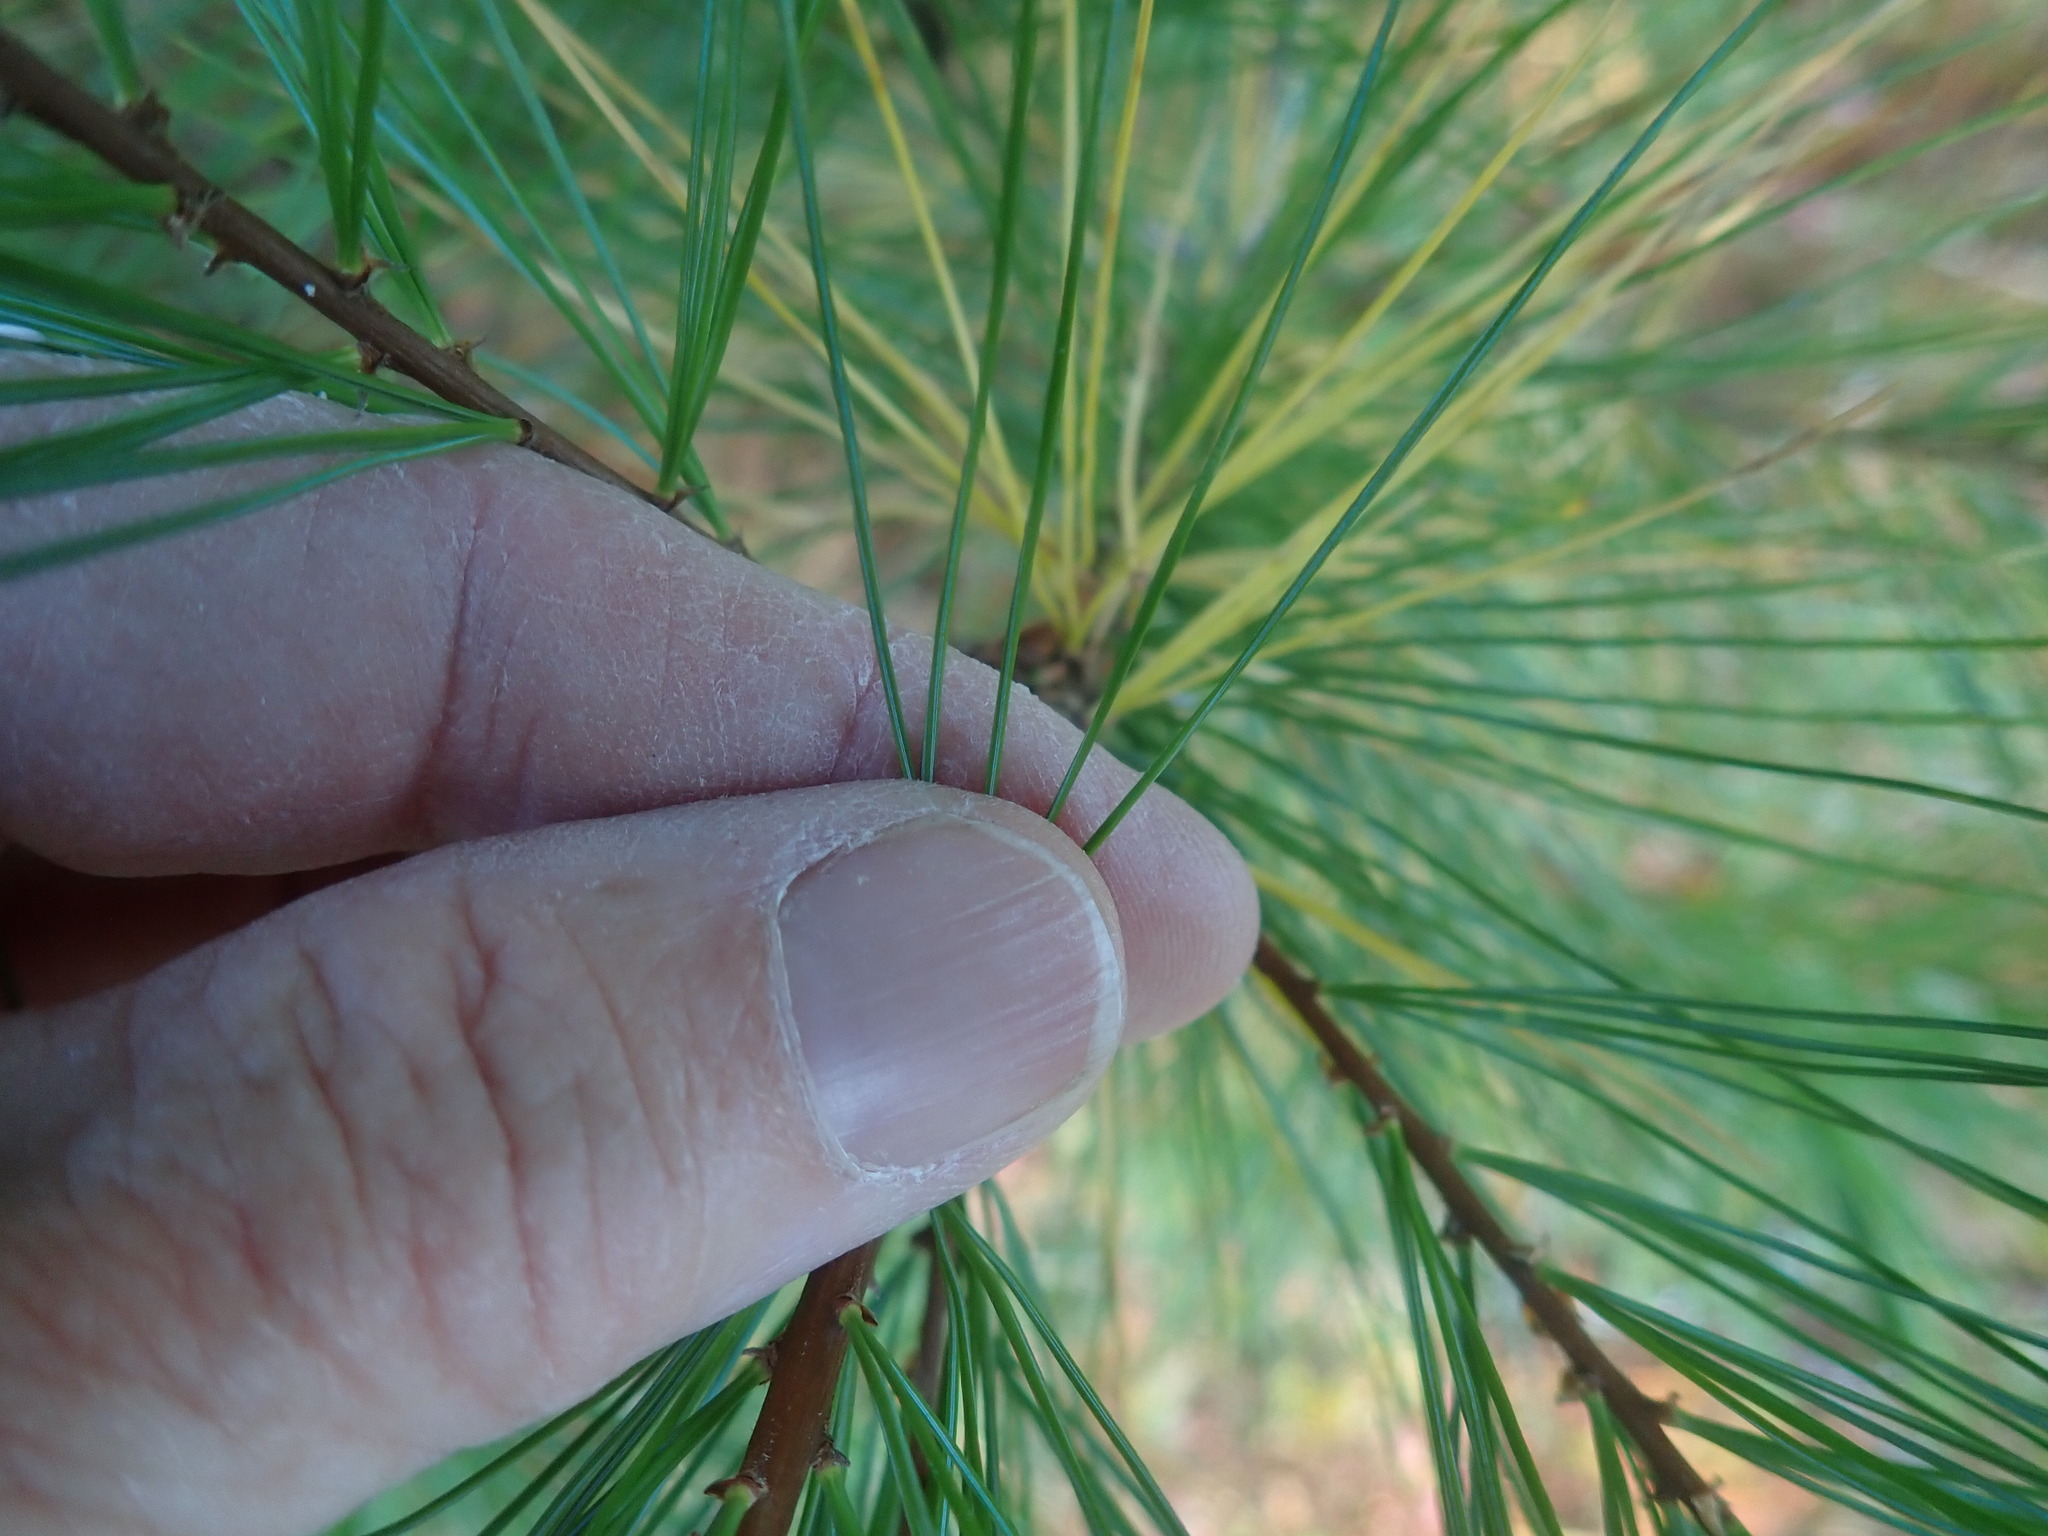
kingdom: Plantae
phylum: Tracheophyta
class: Pinopsida
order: Pinales
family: Pinaceae
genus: Pinus
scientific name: Pinus strobus
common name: Weymouth pine
